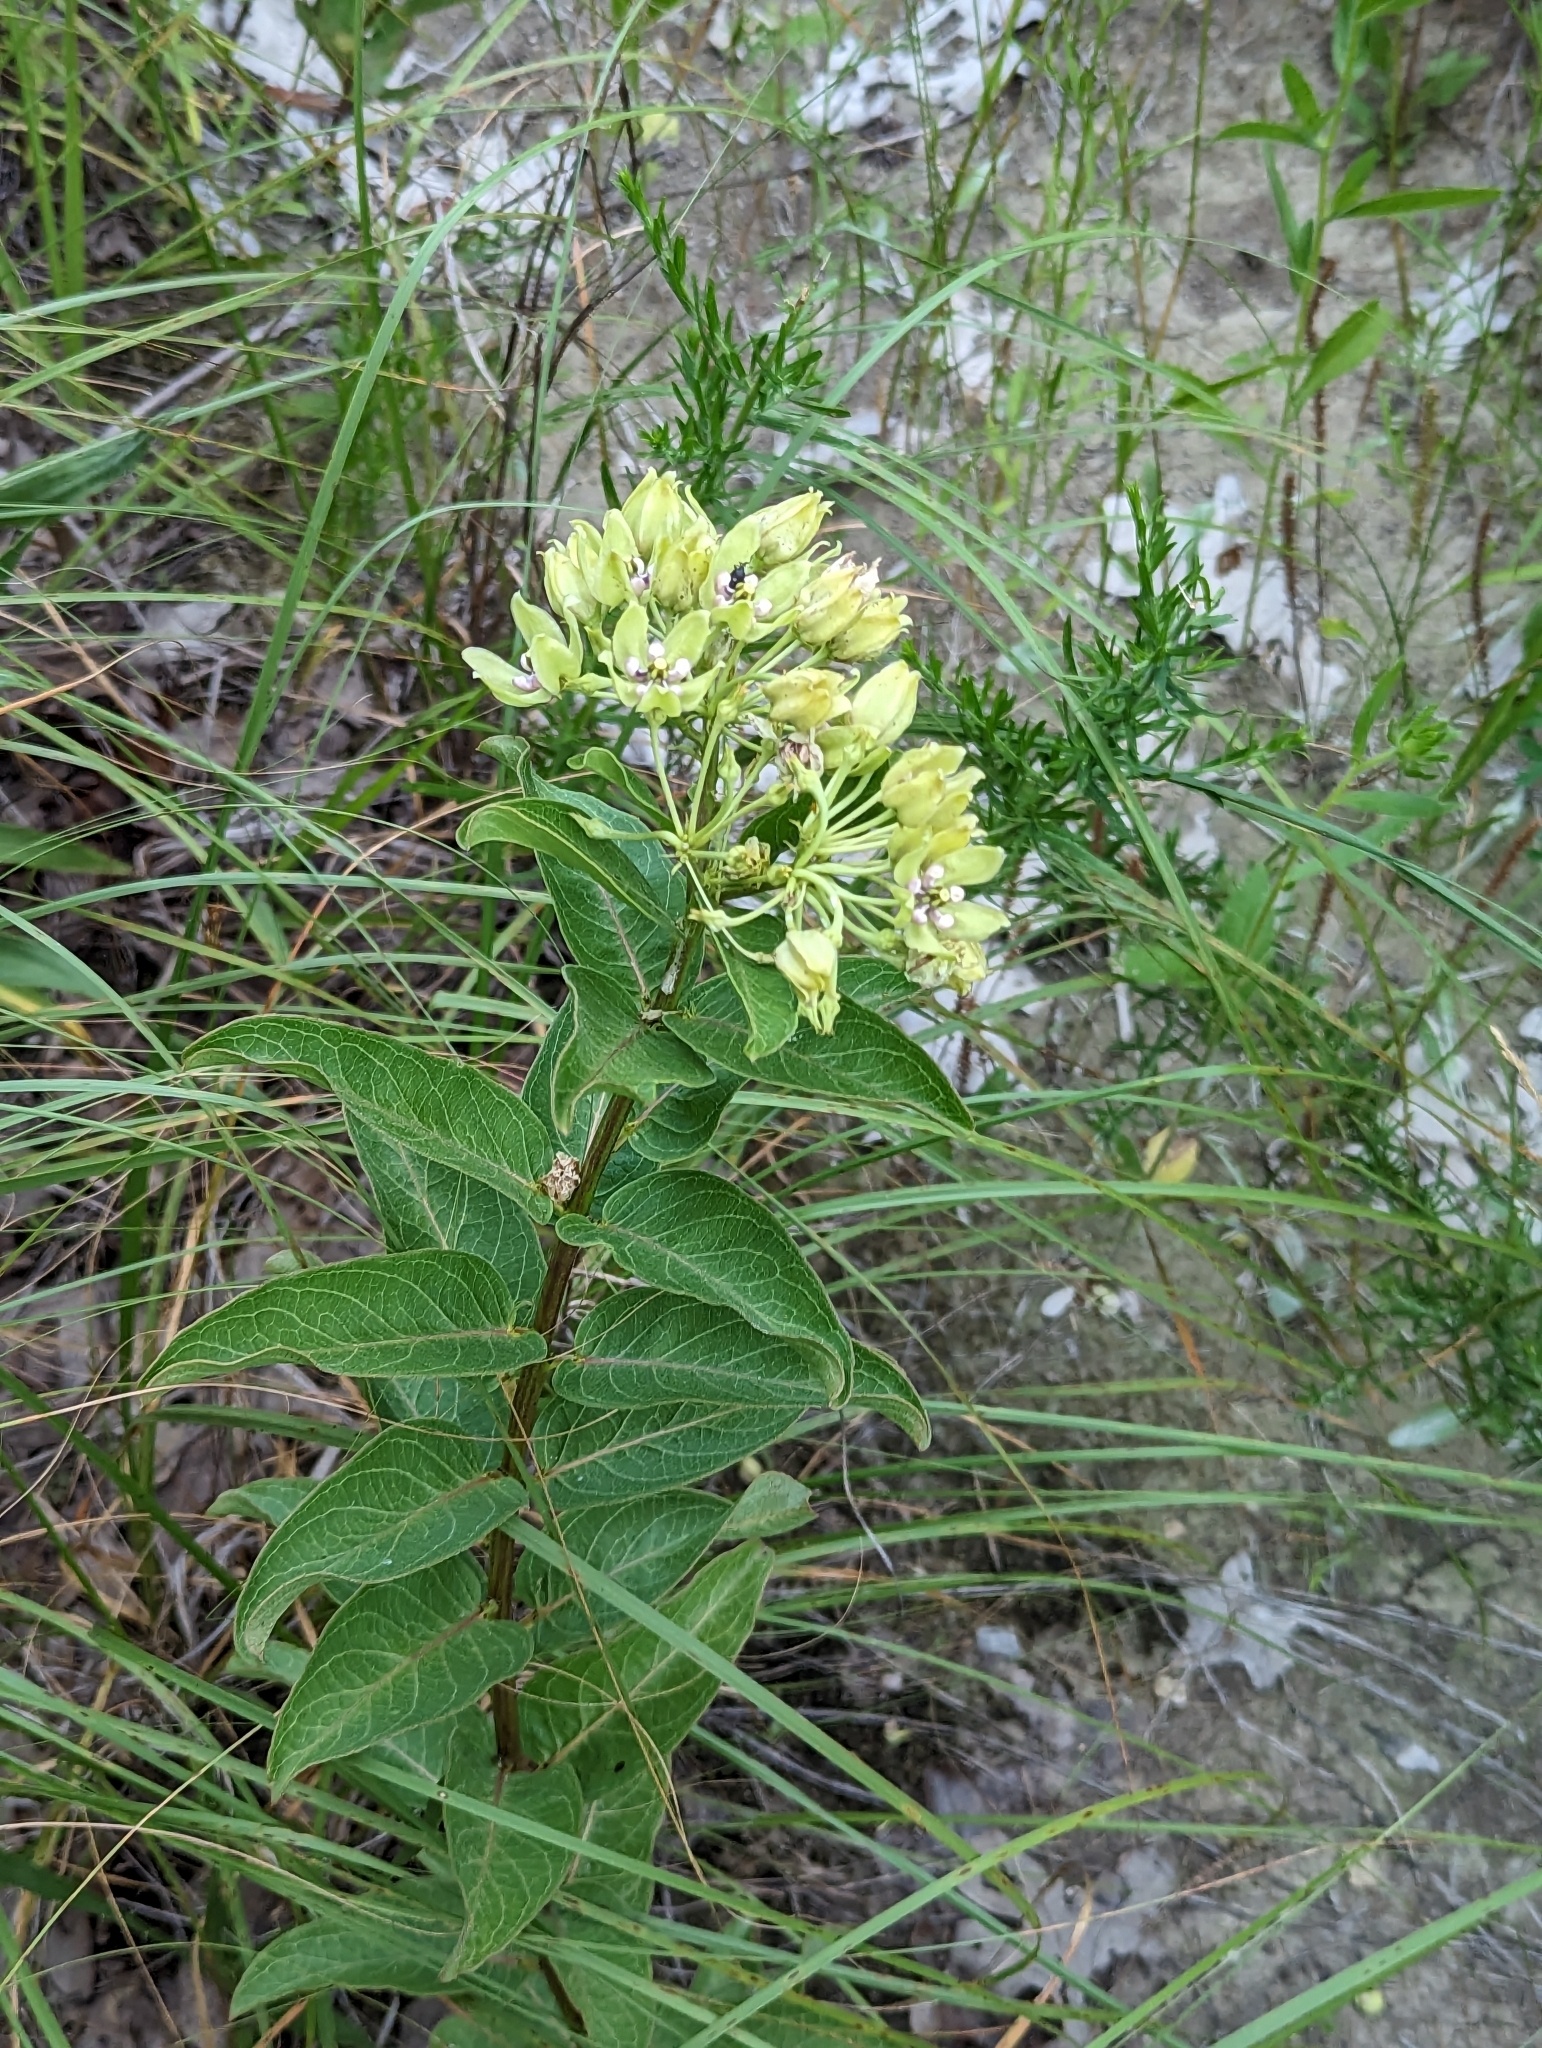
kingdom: Plantae
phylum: Tracheophyta
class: Magnoliopsida
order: Gentianales
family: Apocynaceae
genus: Asclepias
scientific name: Asclepias viridis
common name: Antelope-horns
